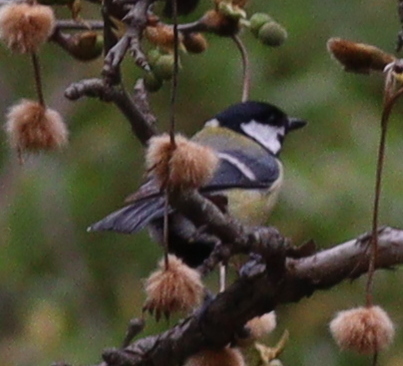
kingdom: Animalia
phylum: Chordata
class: Aves
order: Passeriformes
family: Paridae
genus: Parus
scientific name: Parus major
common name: Great tit
